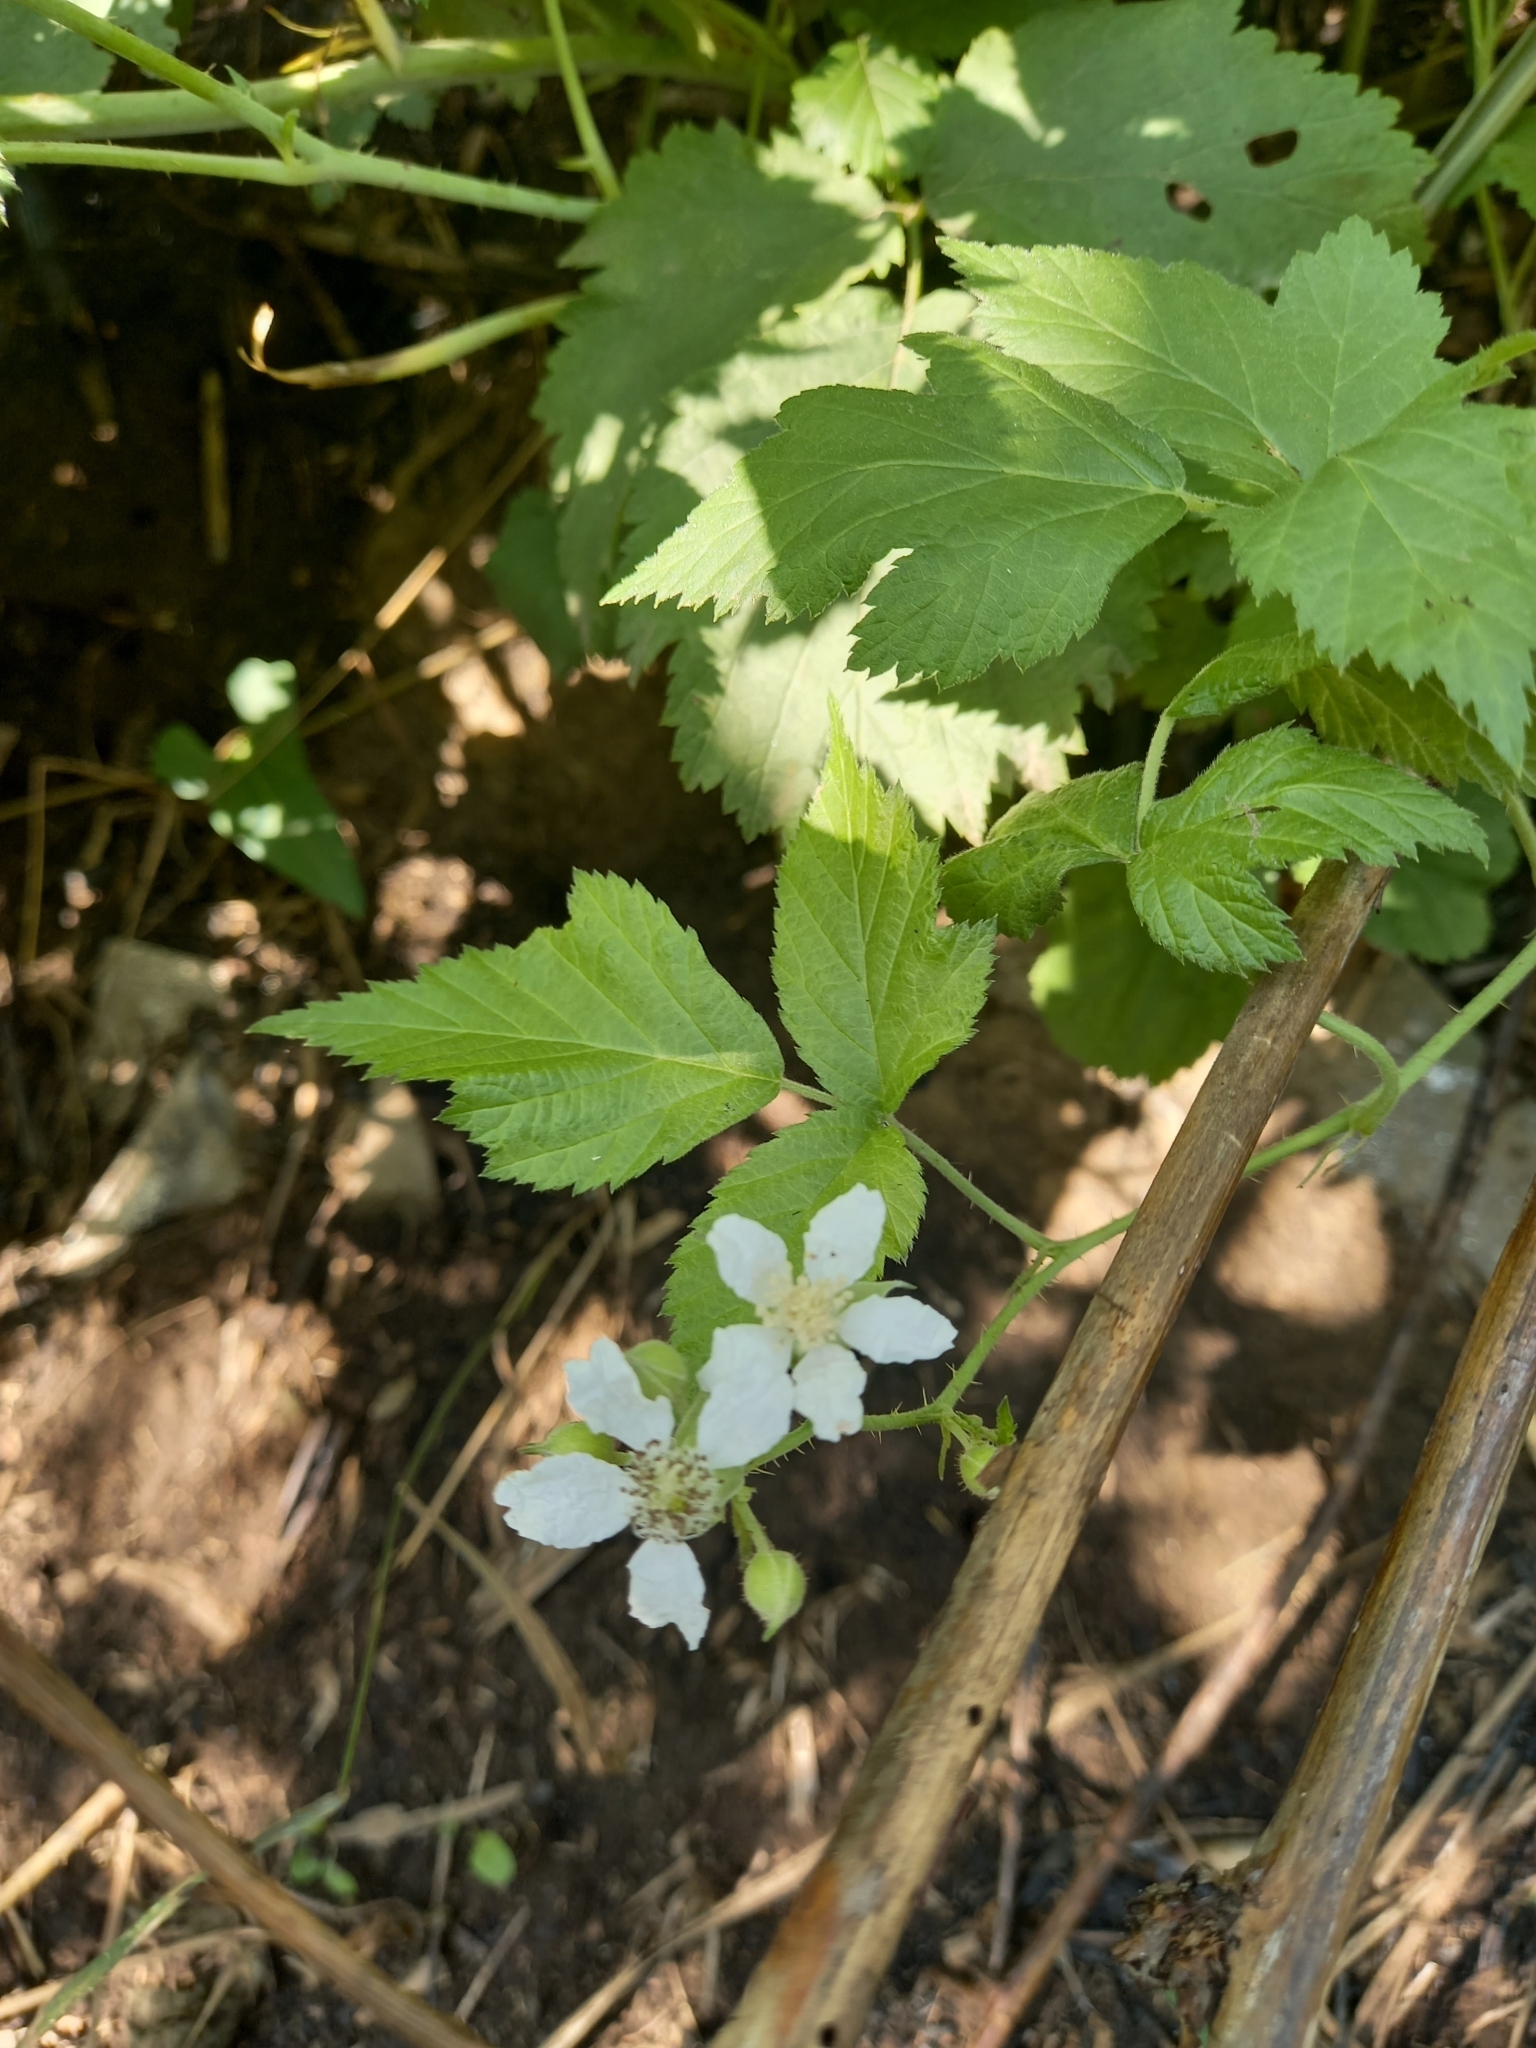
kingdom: Plantae
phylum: Tracheophyta
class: Magnoliopsida
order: Rosales
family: Rosaceae
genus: Rubus
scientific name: Rubus caesius
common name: Dewberry
